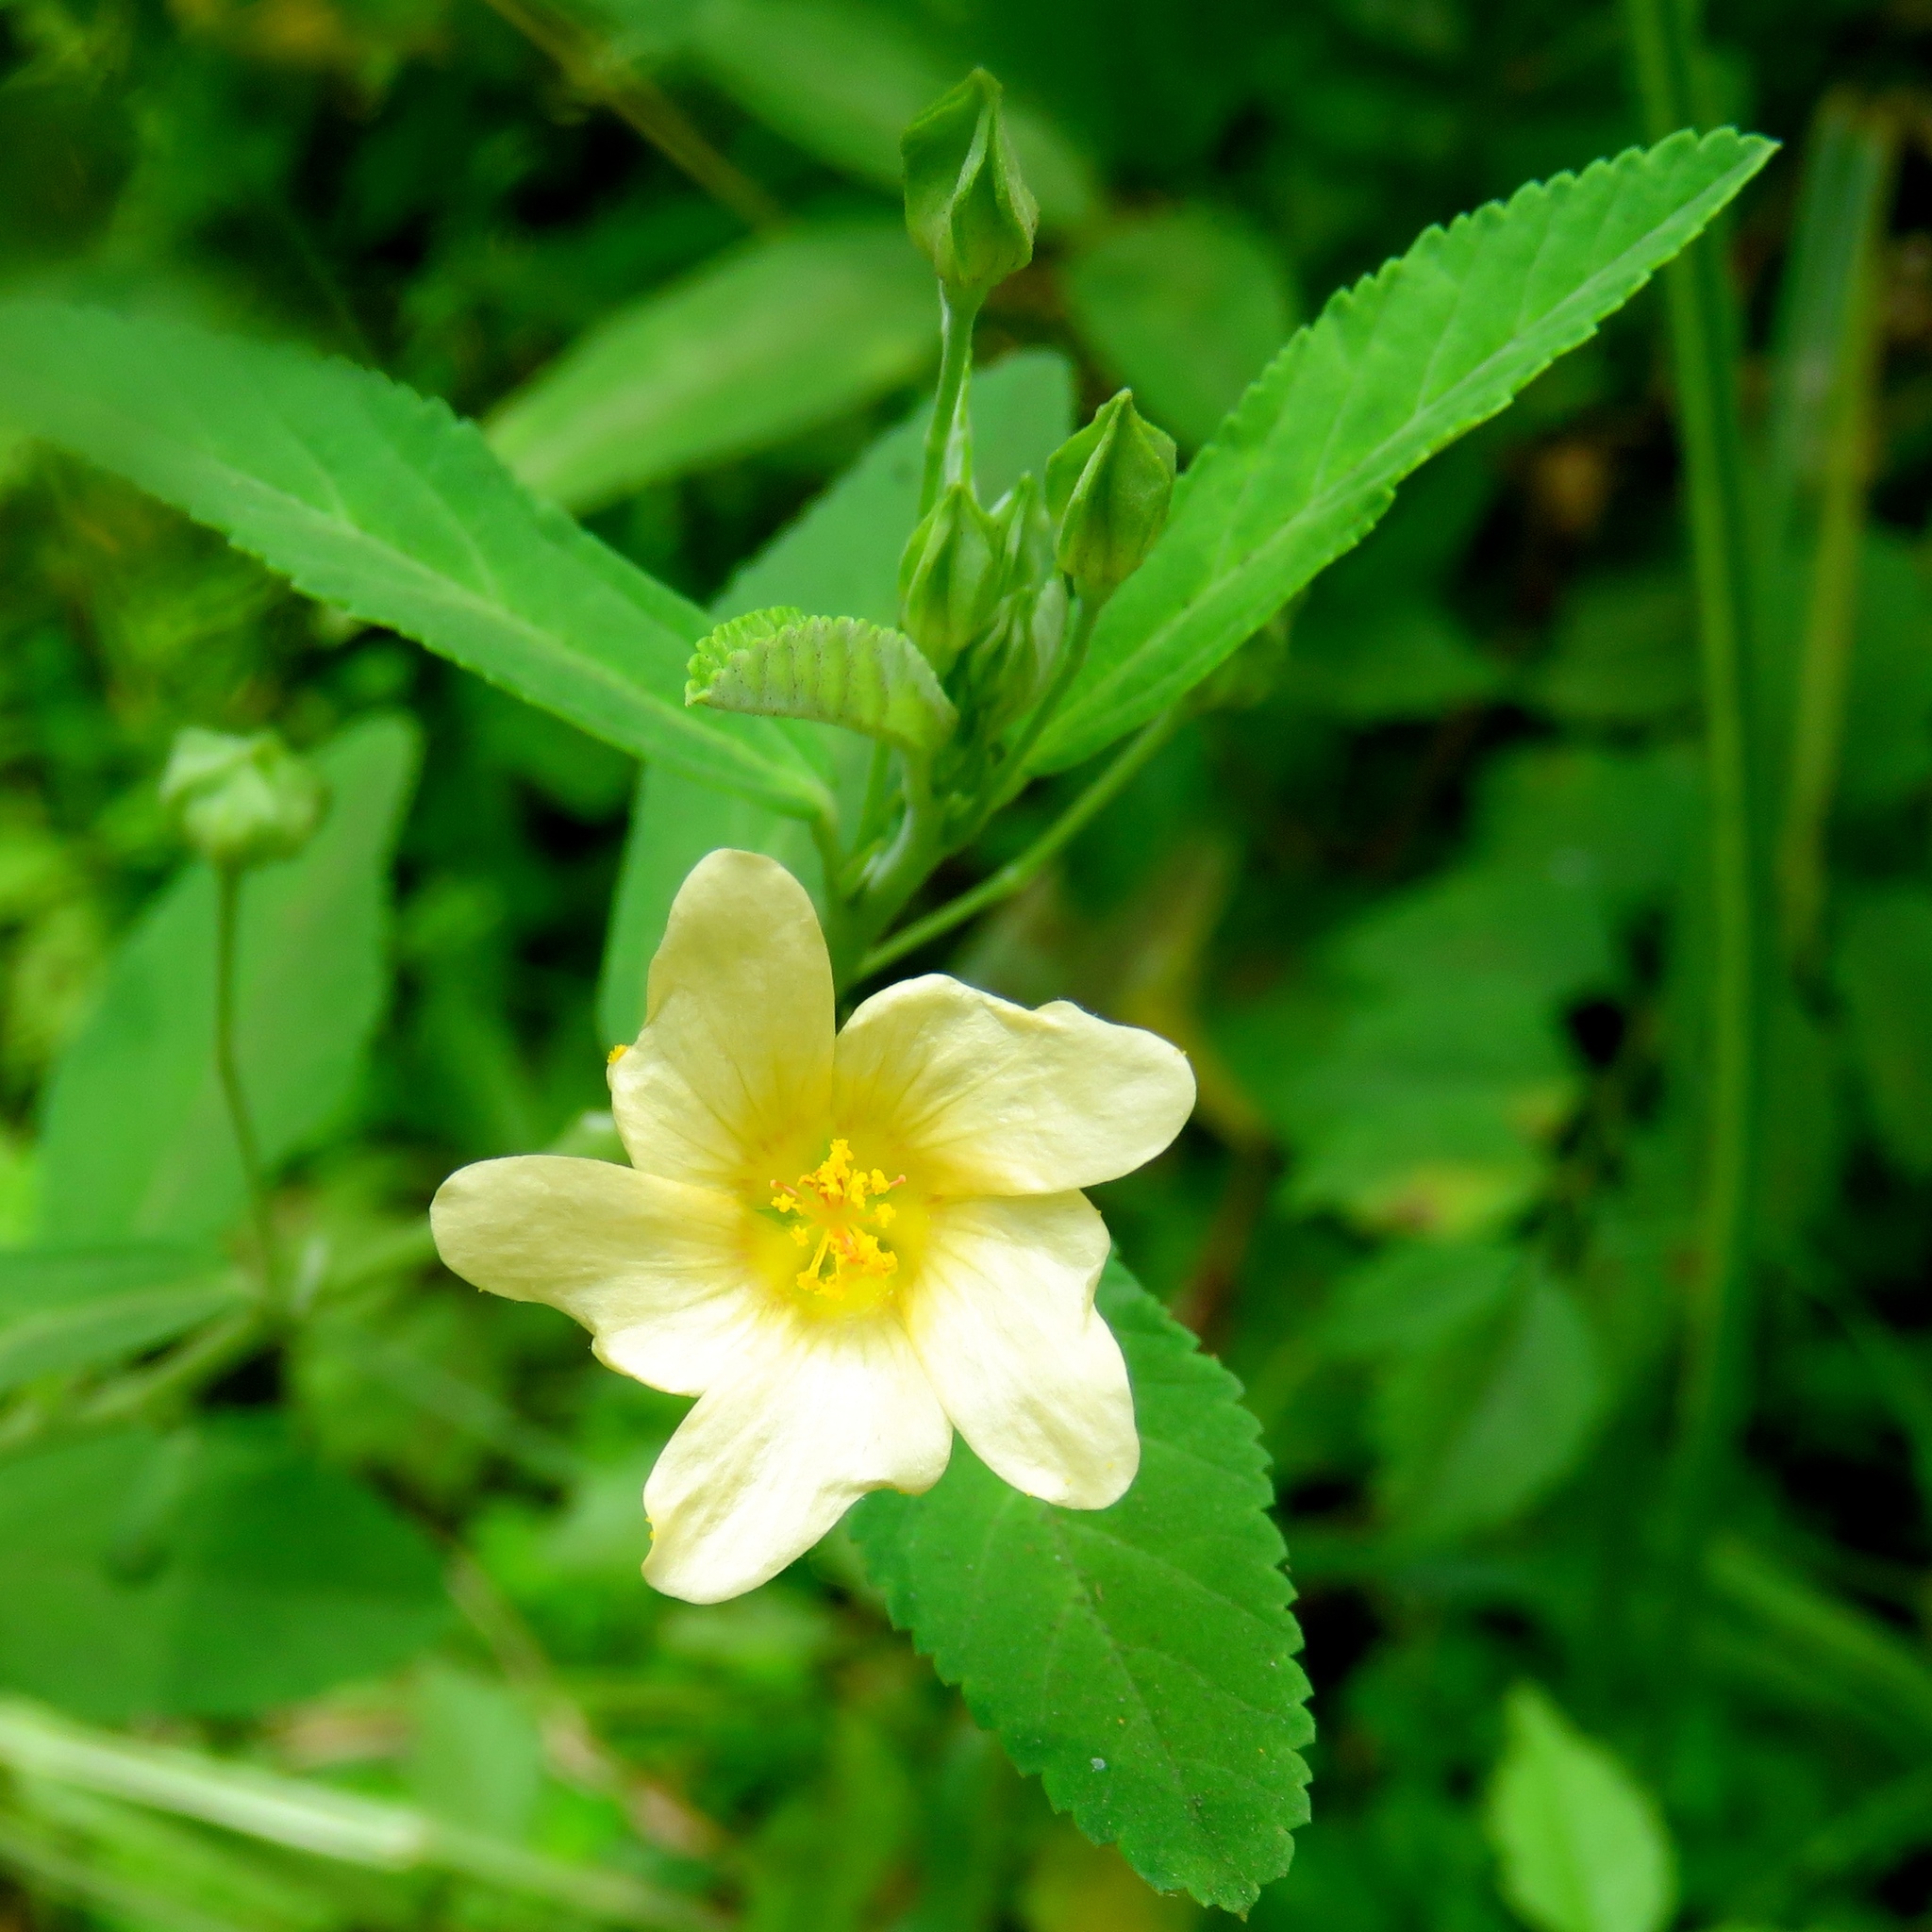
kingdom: Plantae
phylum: Tracheophyta
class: Magnoliopsida
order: Malvales
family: Malvaceae
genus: Sida
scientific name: Sida rhombifolia
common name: Queensland-hemp
